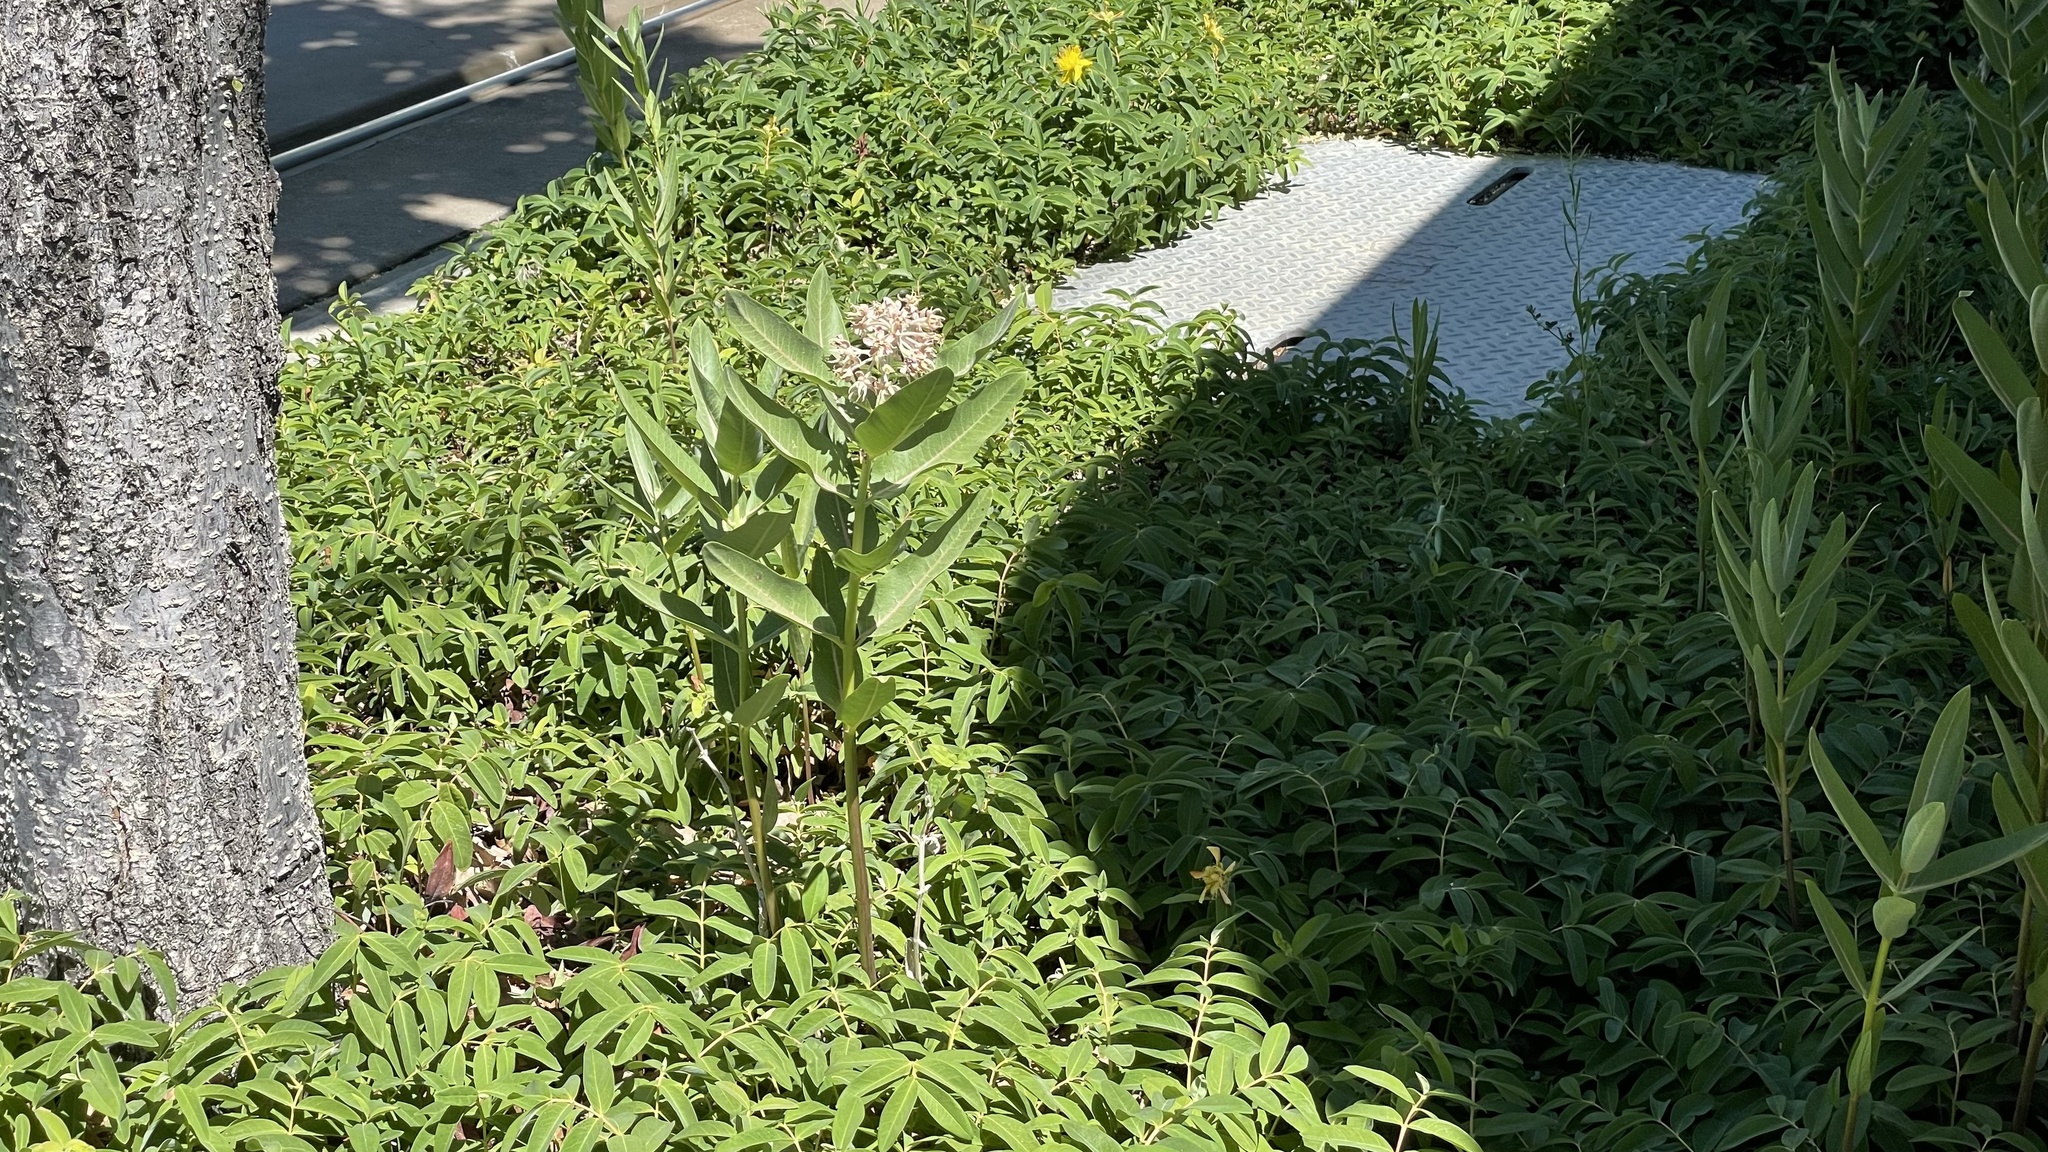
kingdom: Plantae
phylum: Tracheophyta
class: Magnoliopsida
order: Gentianales
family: Apocynaceae
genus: Asclepias
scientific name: Asclepias speciosa
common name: Showy milkweed
